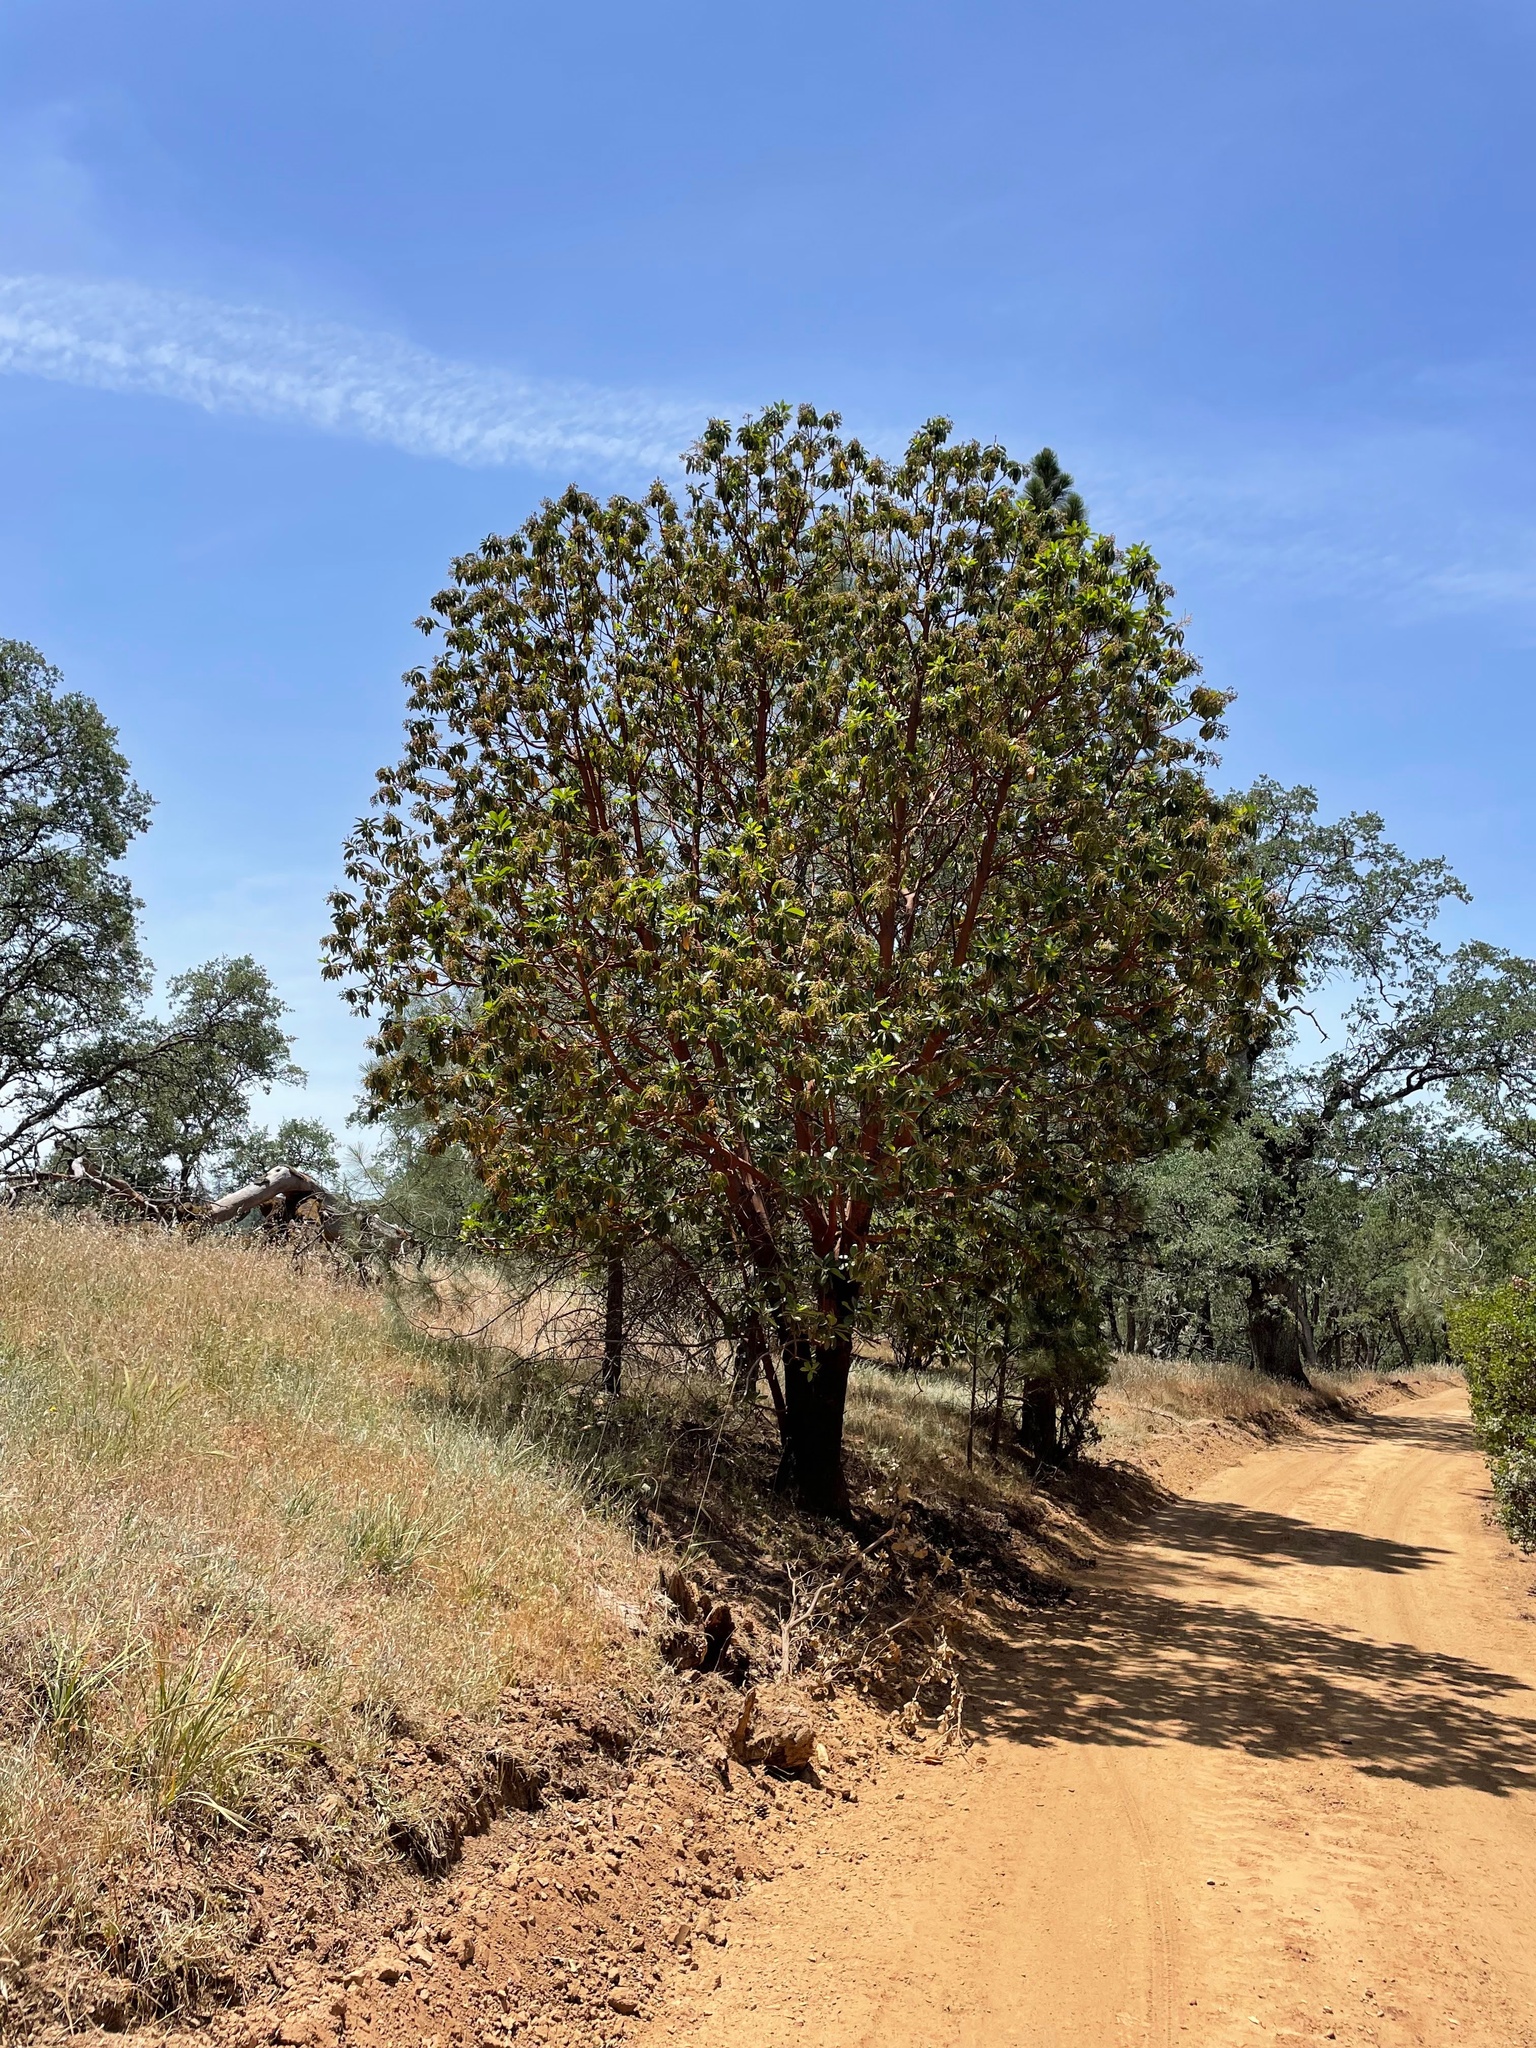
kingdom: Plantae
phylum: Tracheophyta
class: Magnoliopsida
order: Ericales
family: Ericaceae
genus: Arbutus
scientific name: Arbutus menziesii
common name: Pacific madrone
